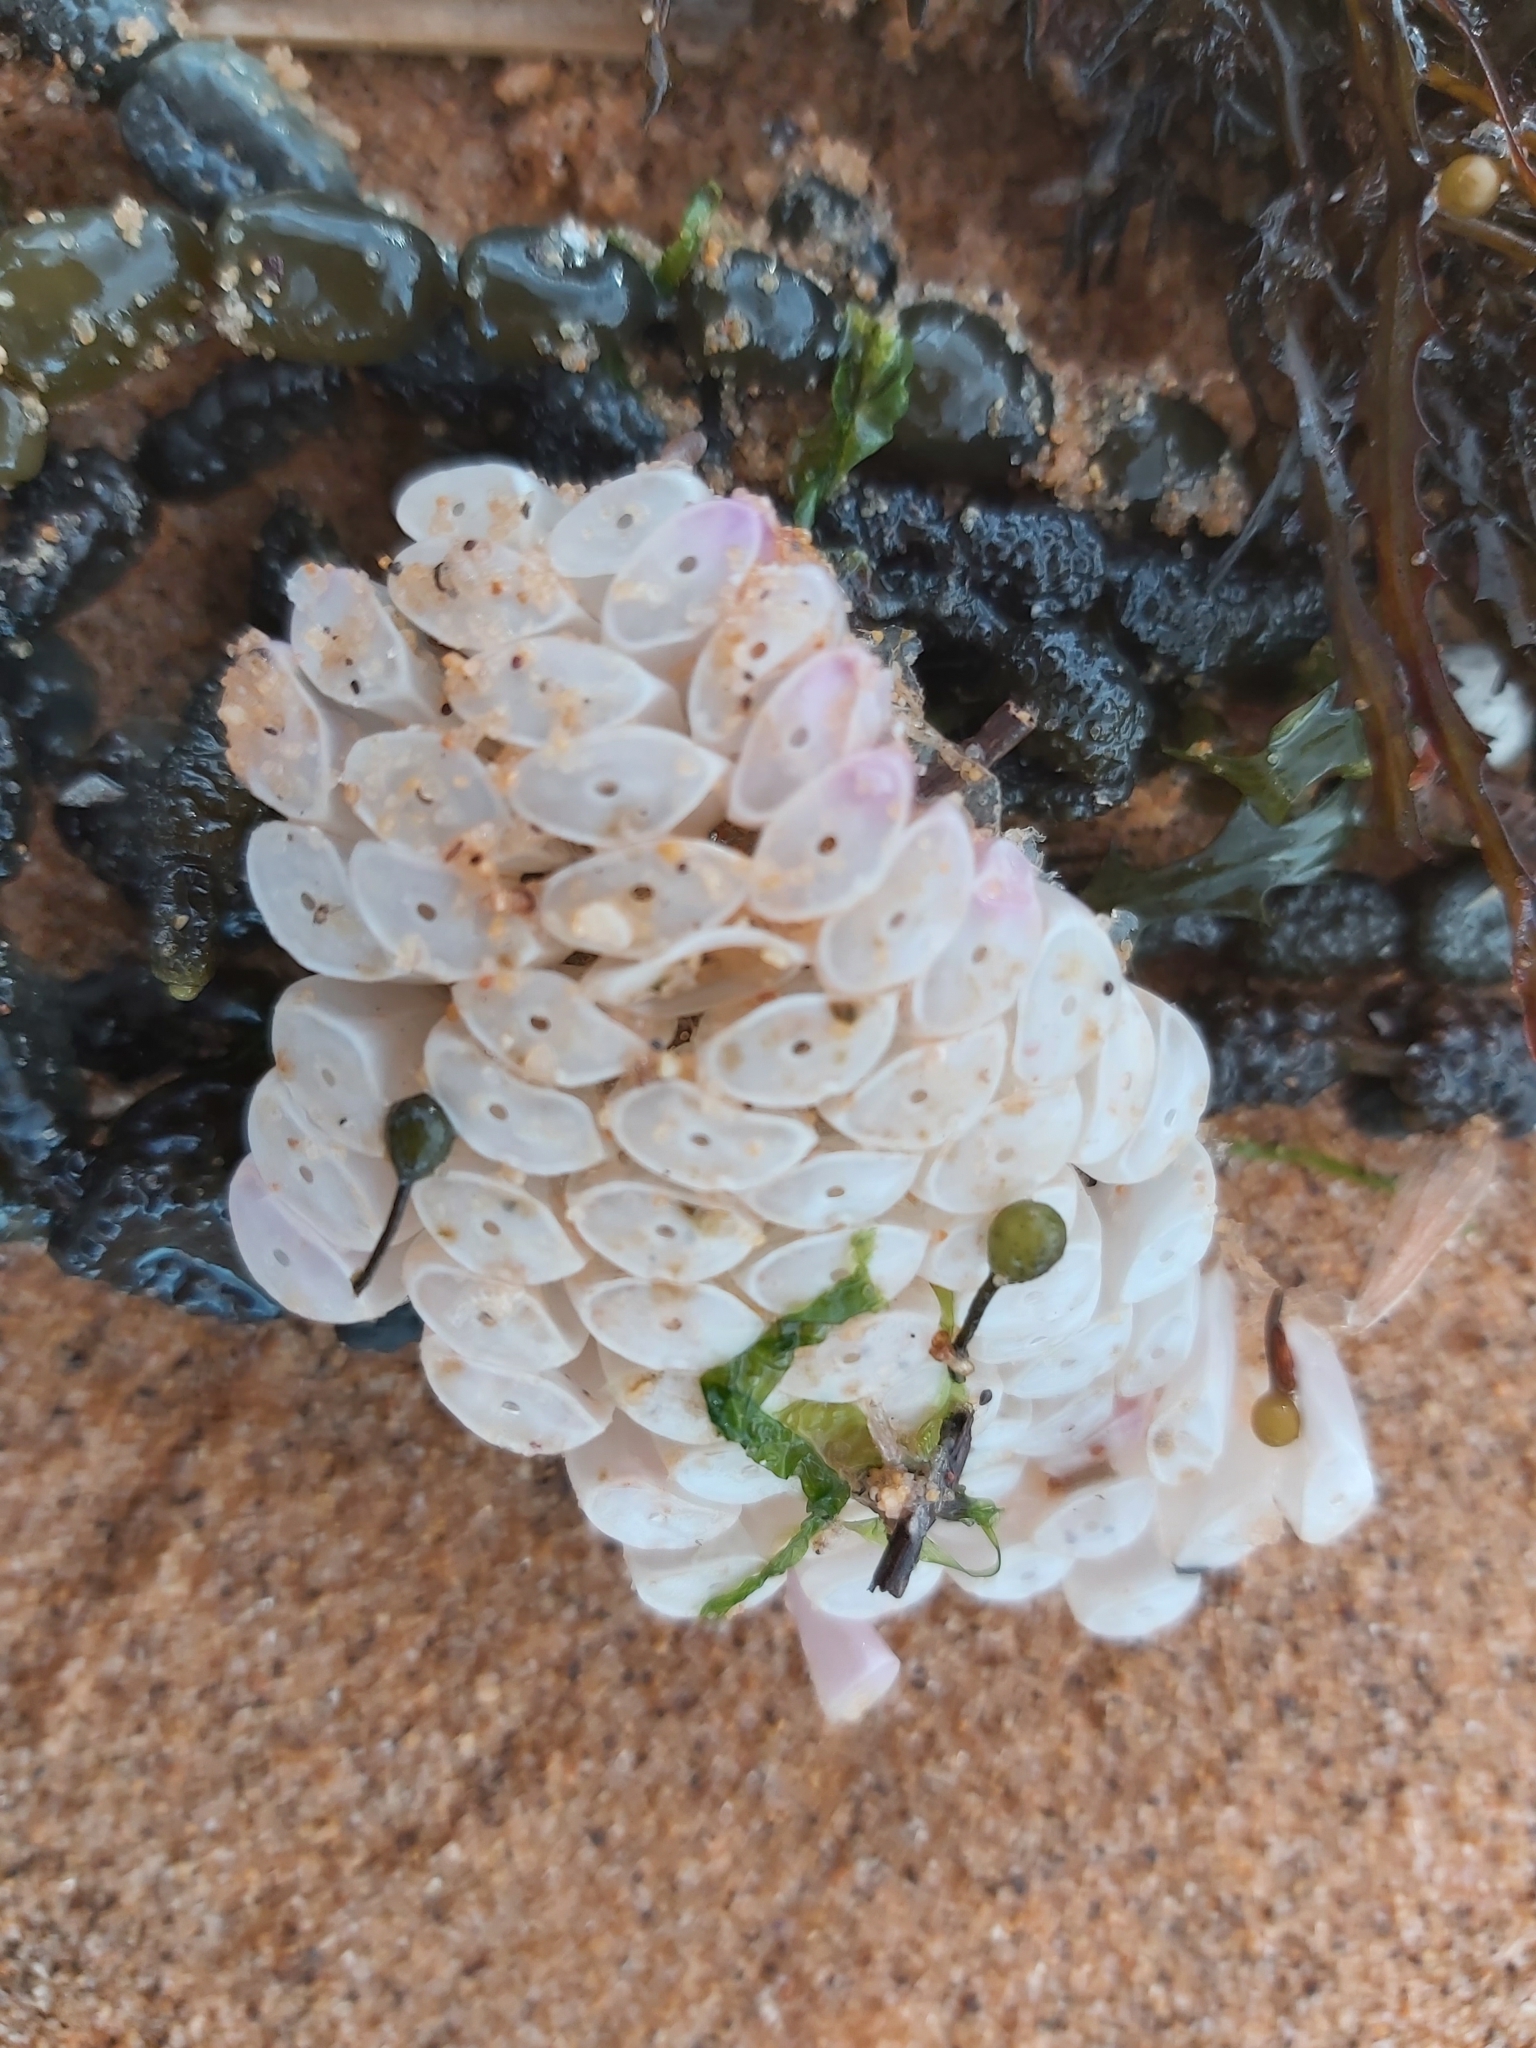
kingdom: Animalia
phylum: Mollusca
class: Gastropoda
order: Neogastropoda
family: Muricidae
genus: Dicathais
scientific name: Dicathais orbita
